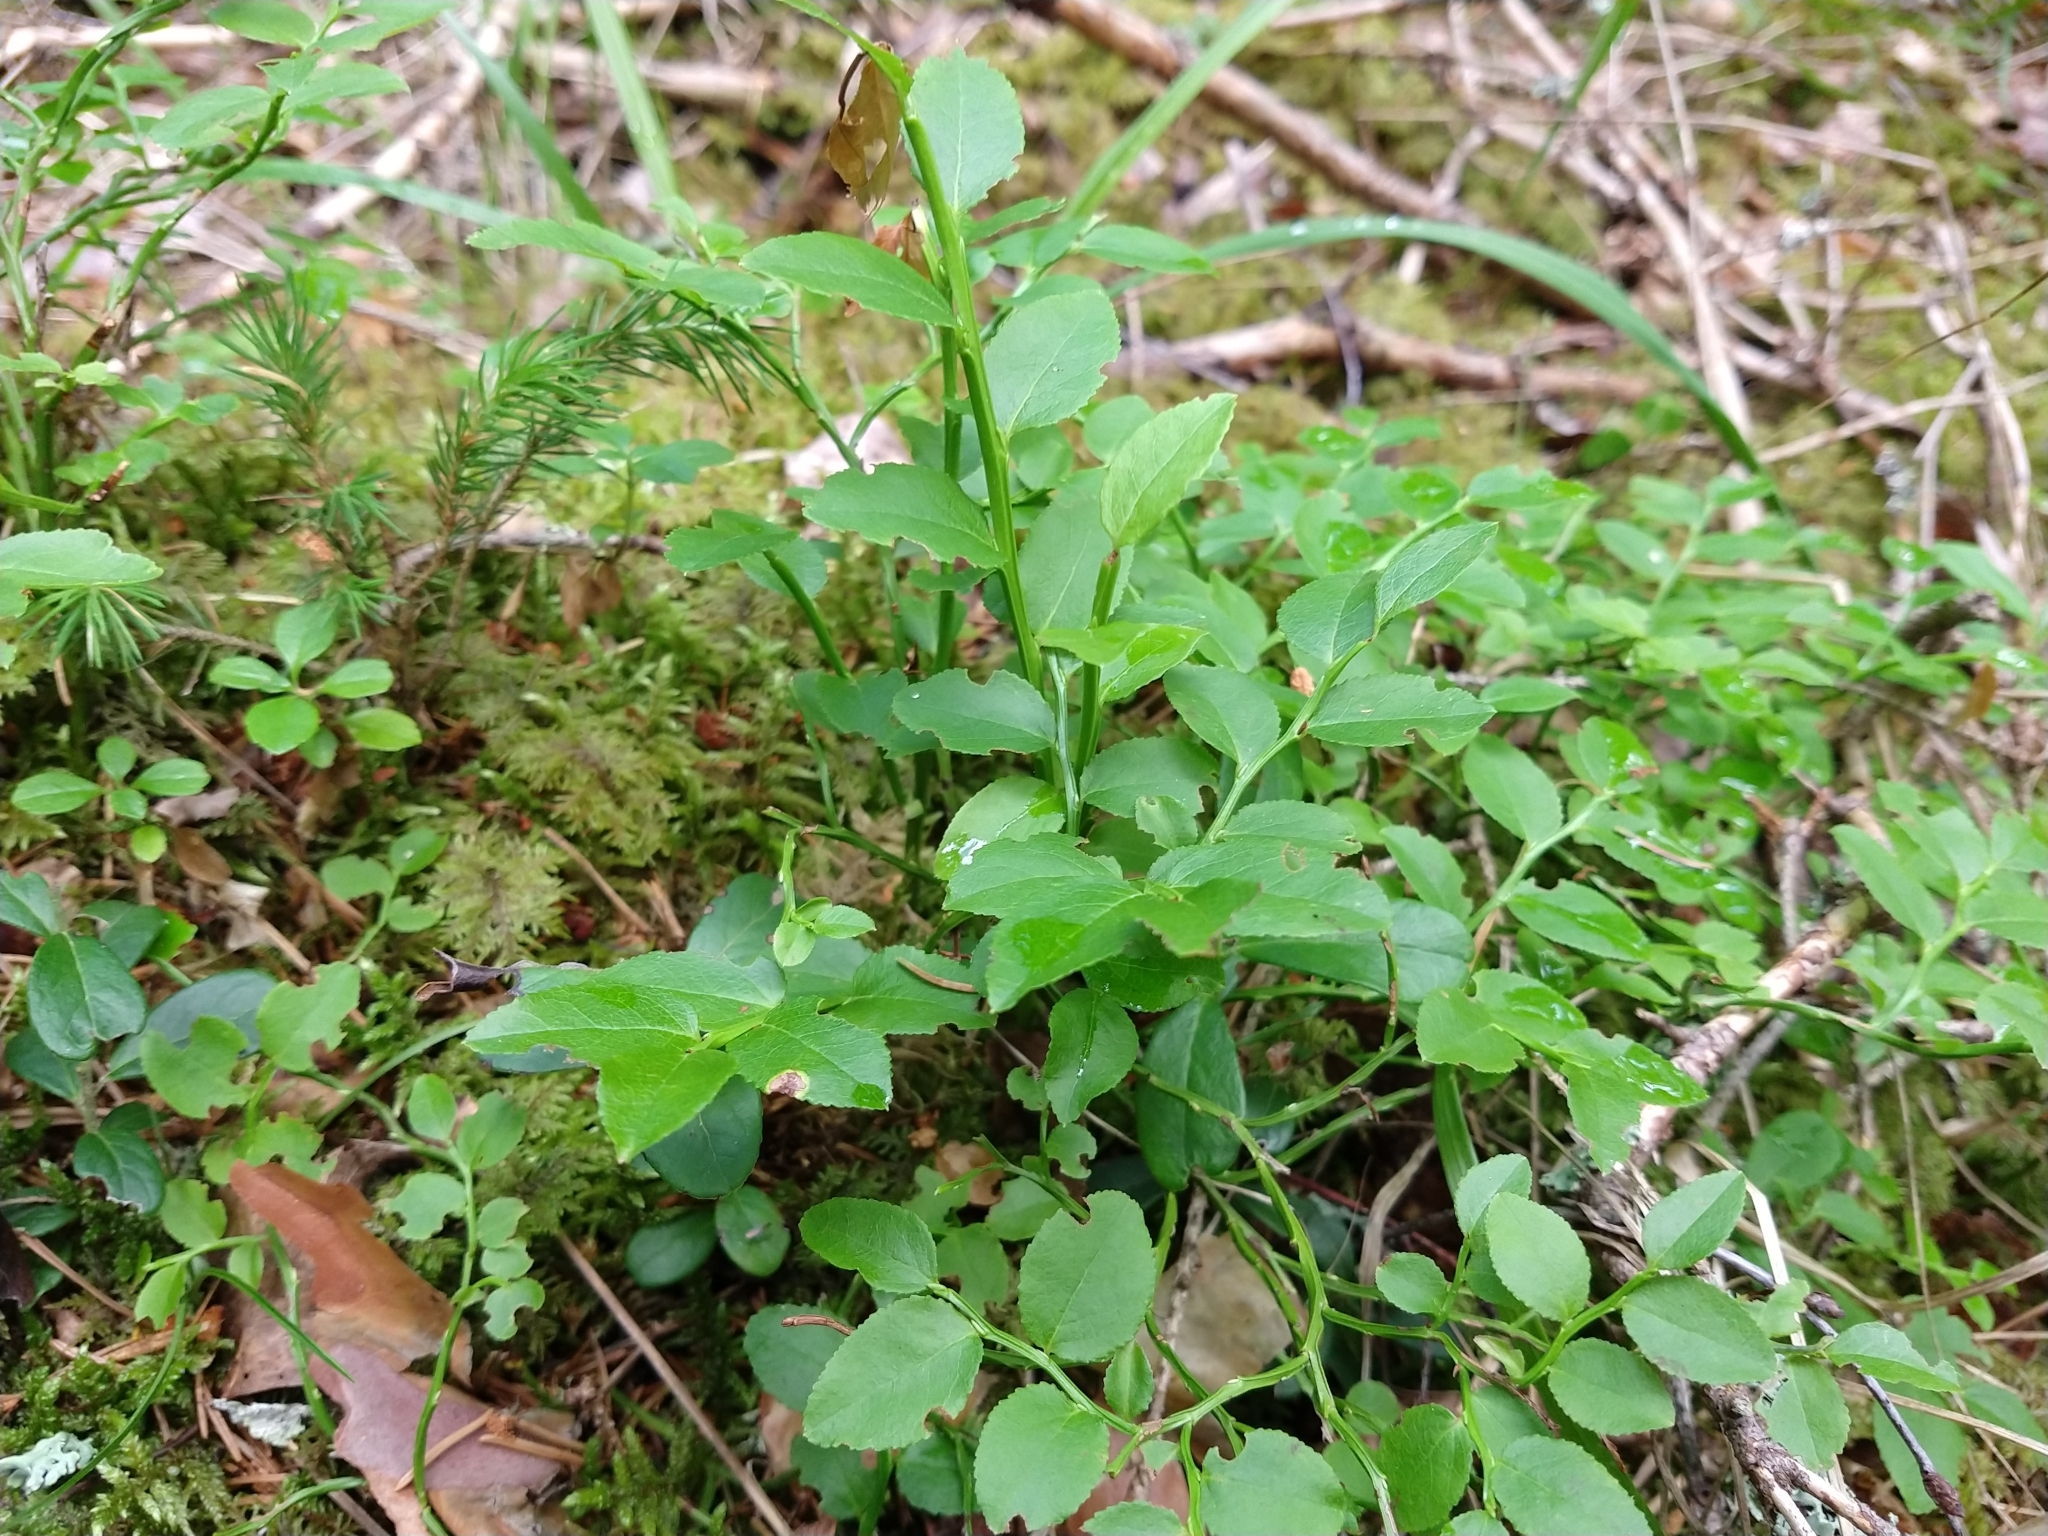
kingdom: Plantae
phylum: Tracheophyta
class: Magnoliopsida
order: Ericales
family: Ericaceae
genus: Vaccinium
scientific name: Vaccinium myrtillus
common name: Bilberry
